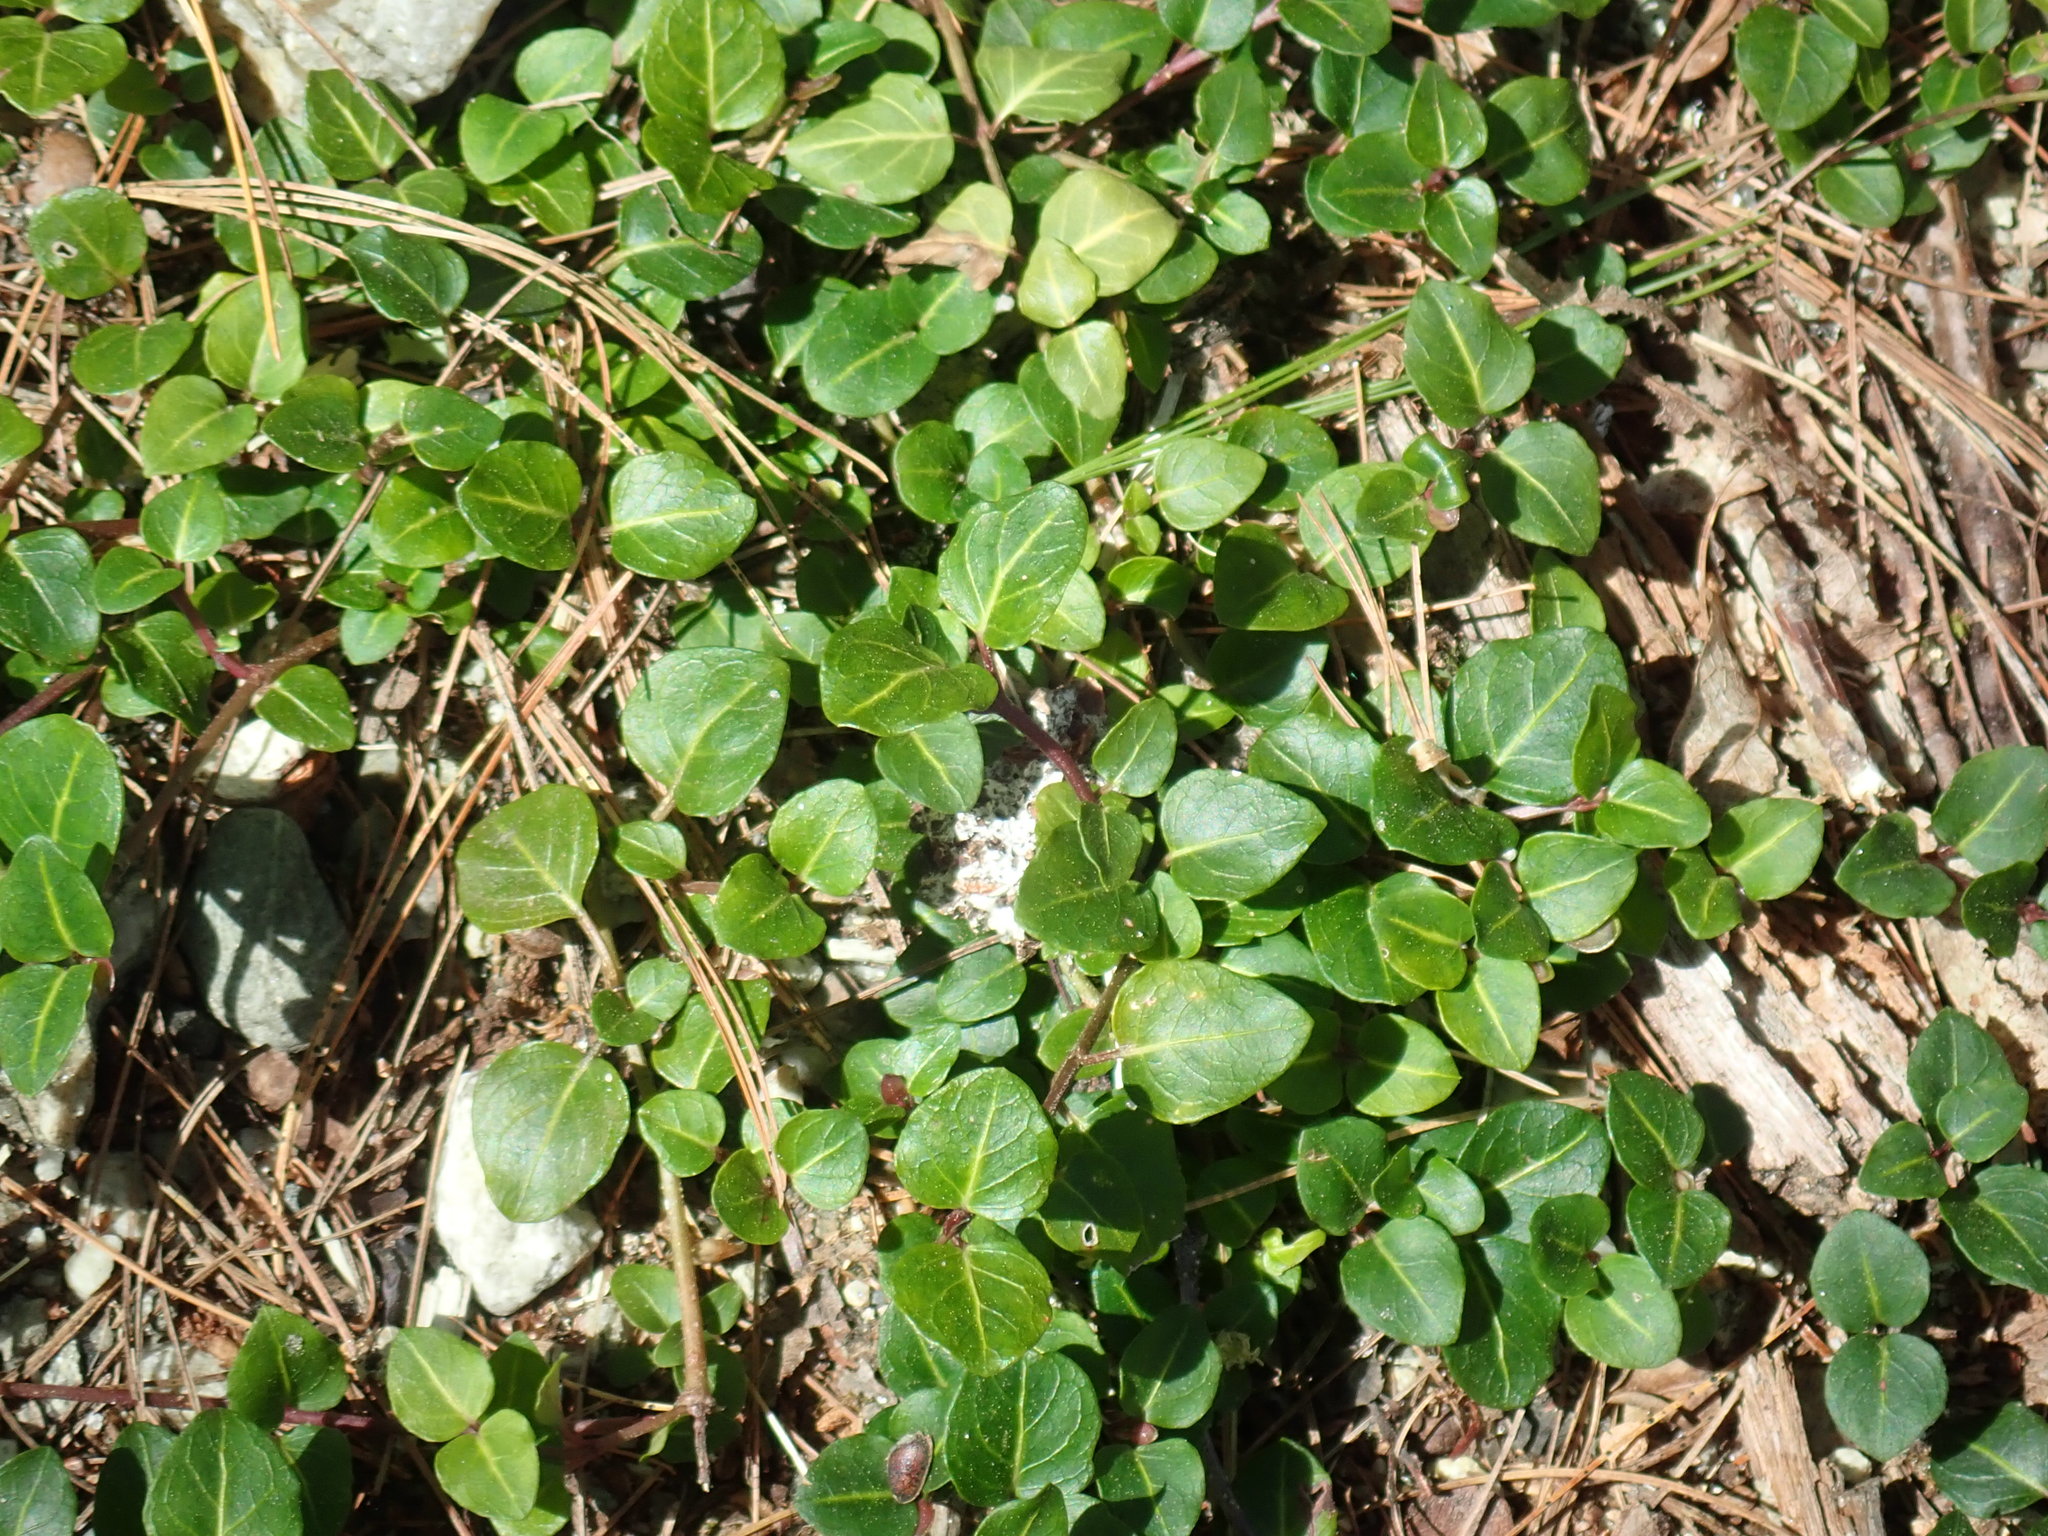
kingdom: Plantae
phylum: Tracheophyta
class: Magnoliopsida
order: Gentianales
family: Rubiaceae
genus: Mitchella
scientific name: Mitchella repens
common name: Partridge-berry
